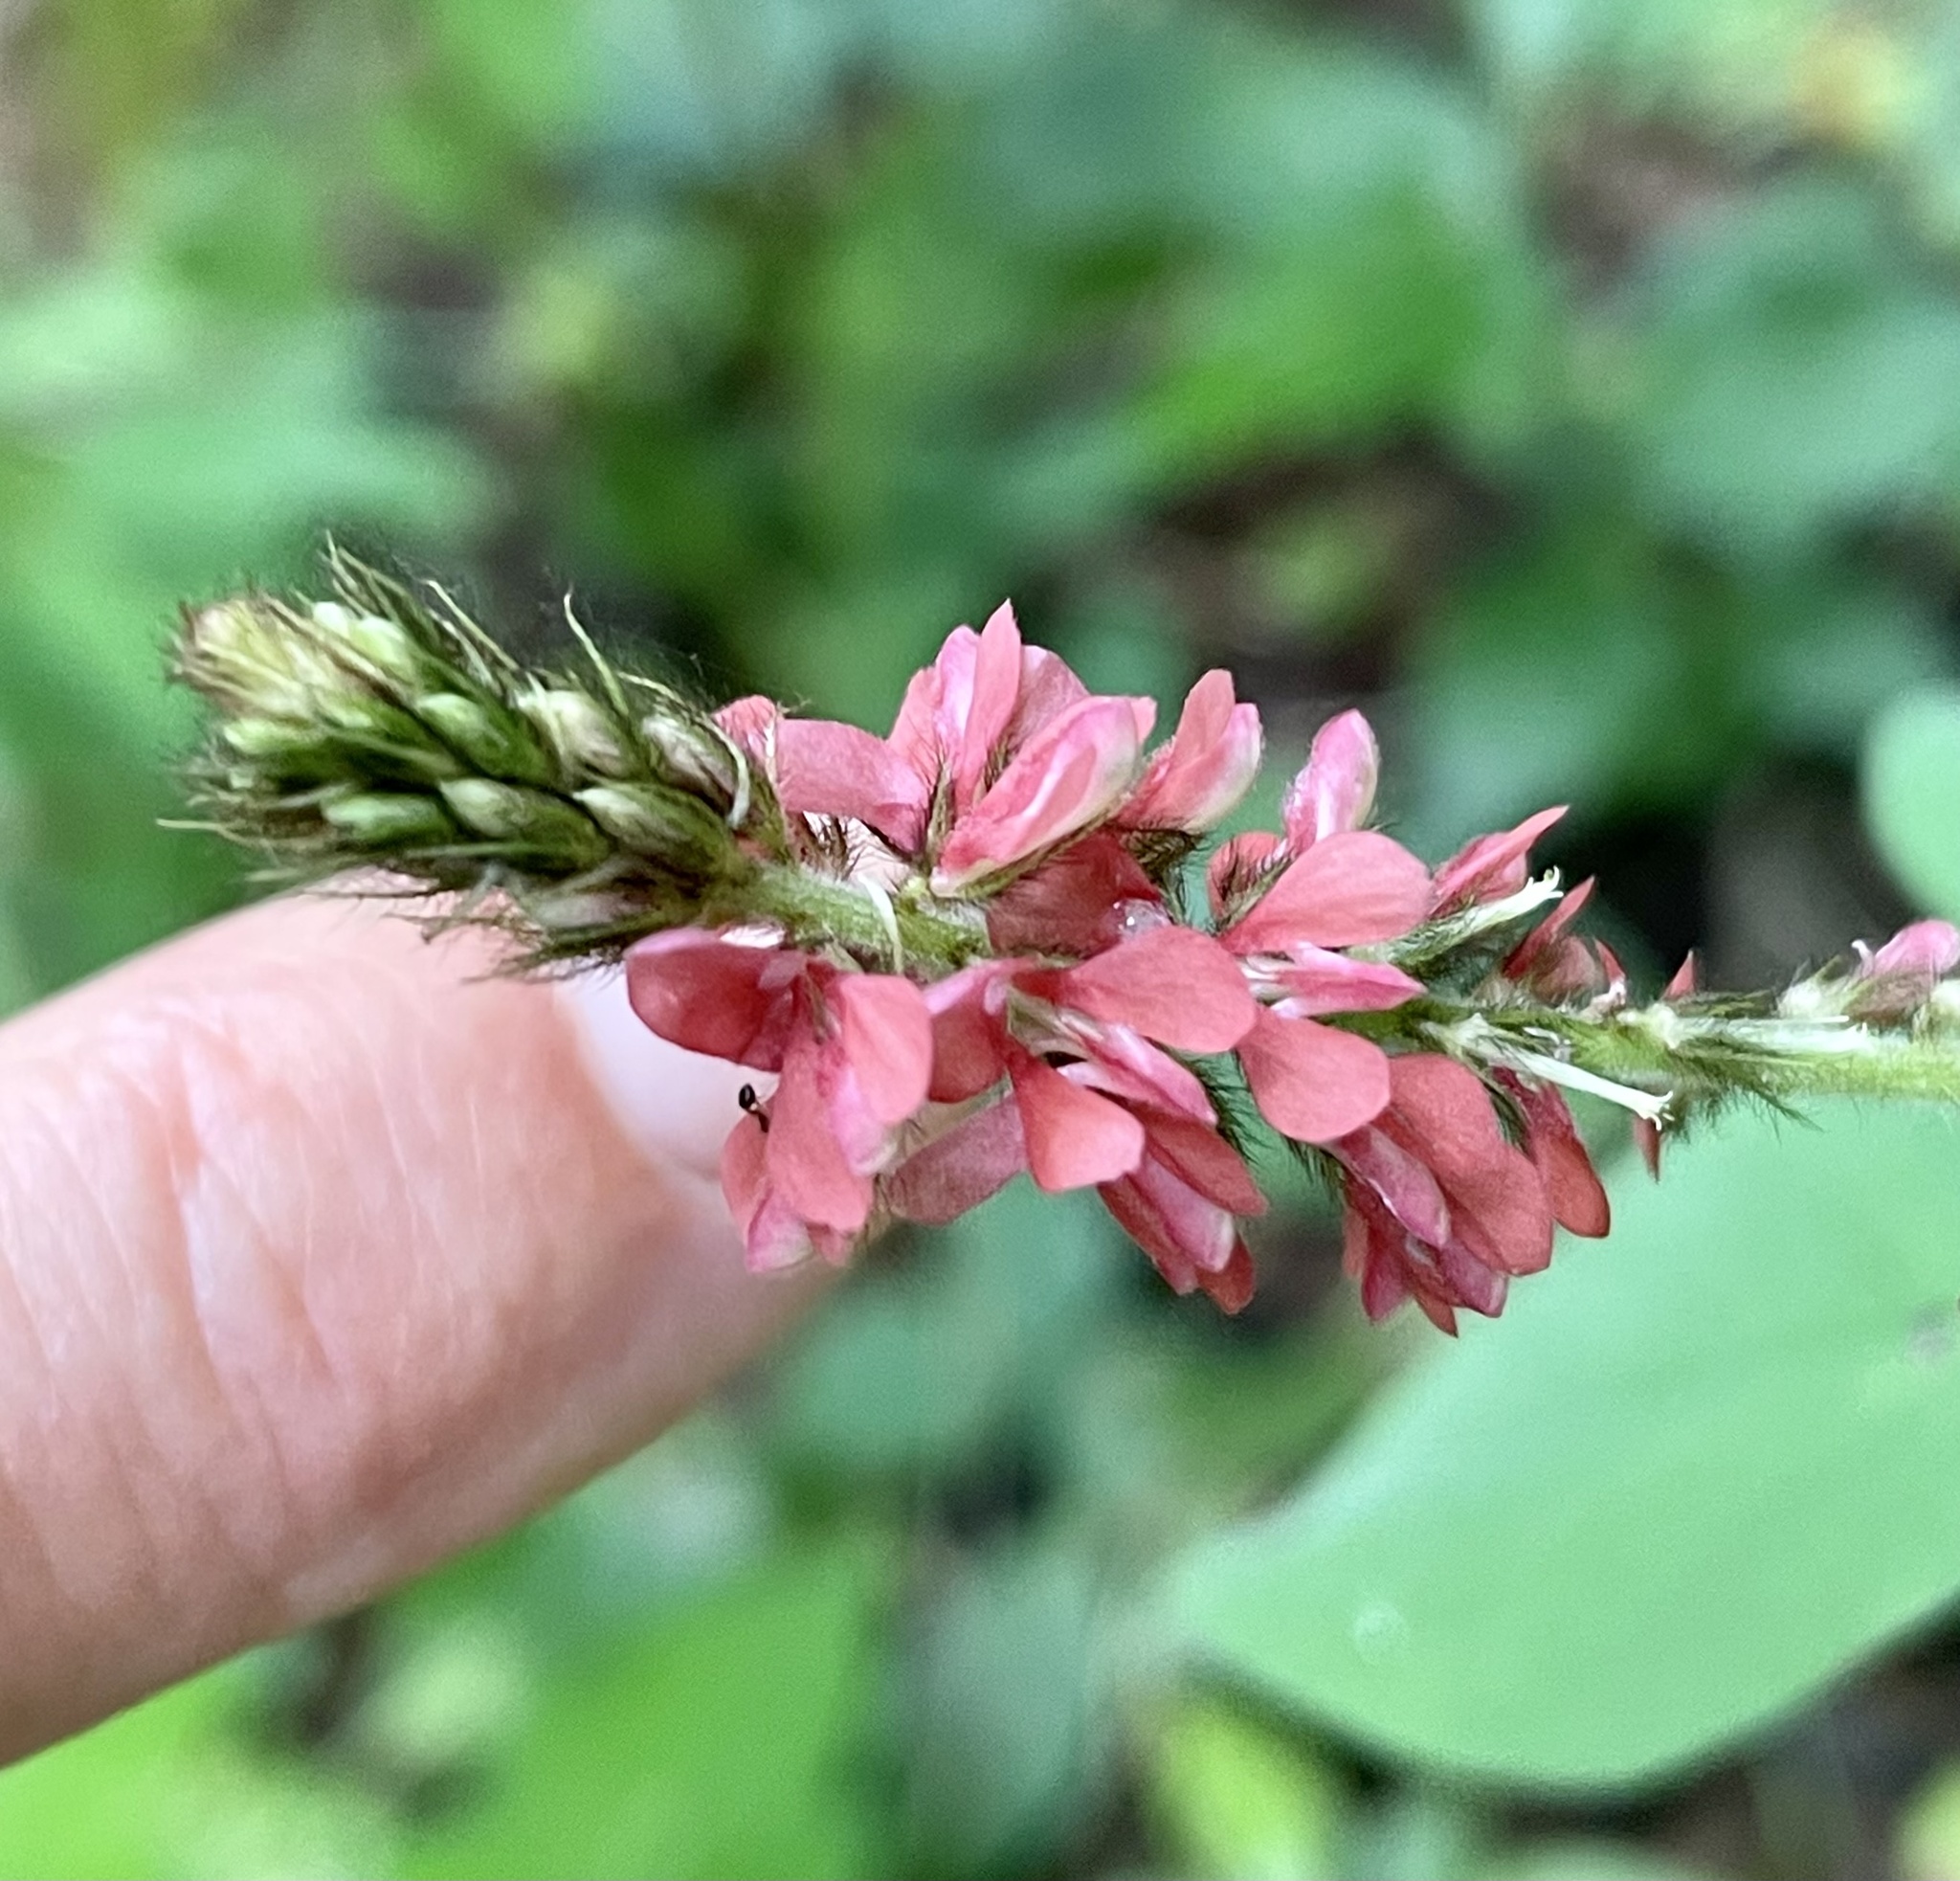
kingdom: Plantae
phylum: Tracheophyta
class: Magnoliopsida
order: Fabales
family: Fabaceae
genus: Indigofera
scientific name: Indigofera hirsuta
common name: Hairy indigo
